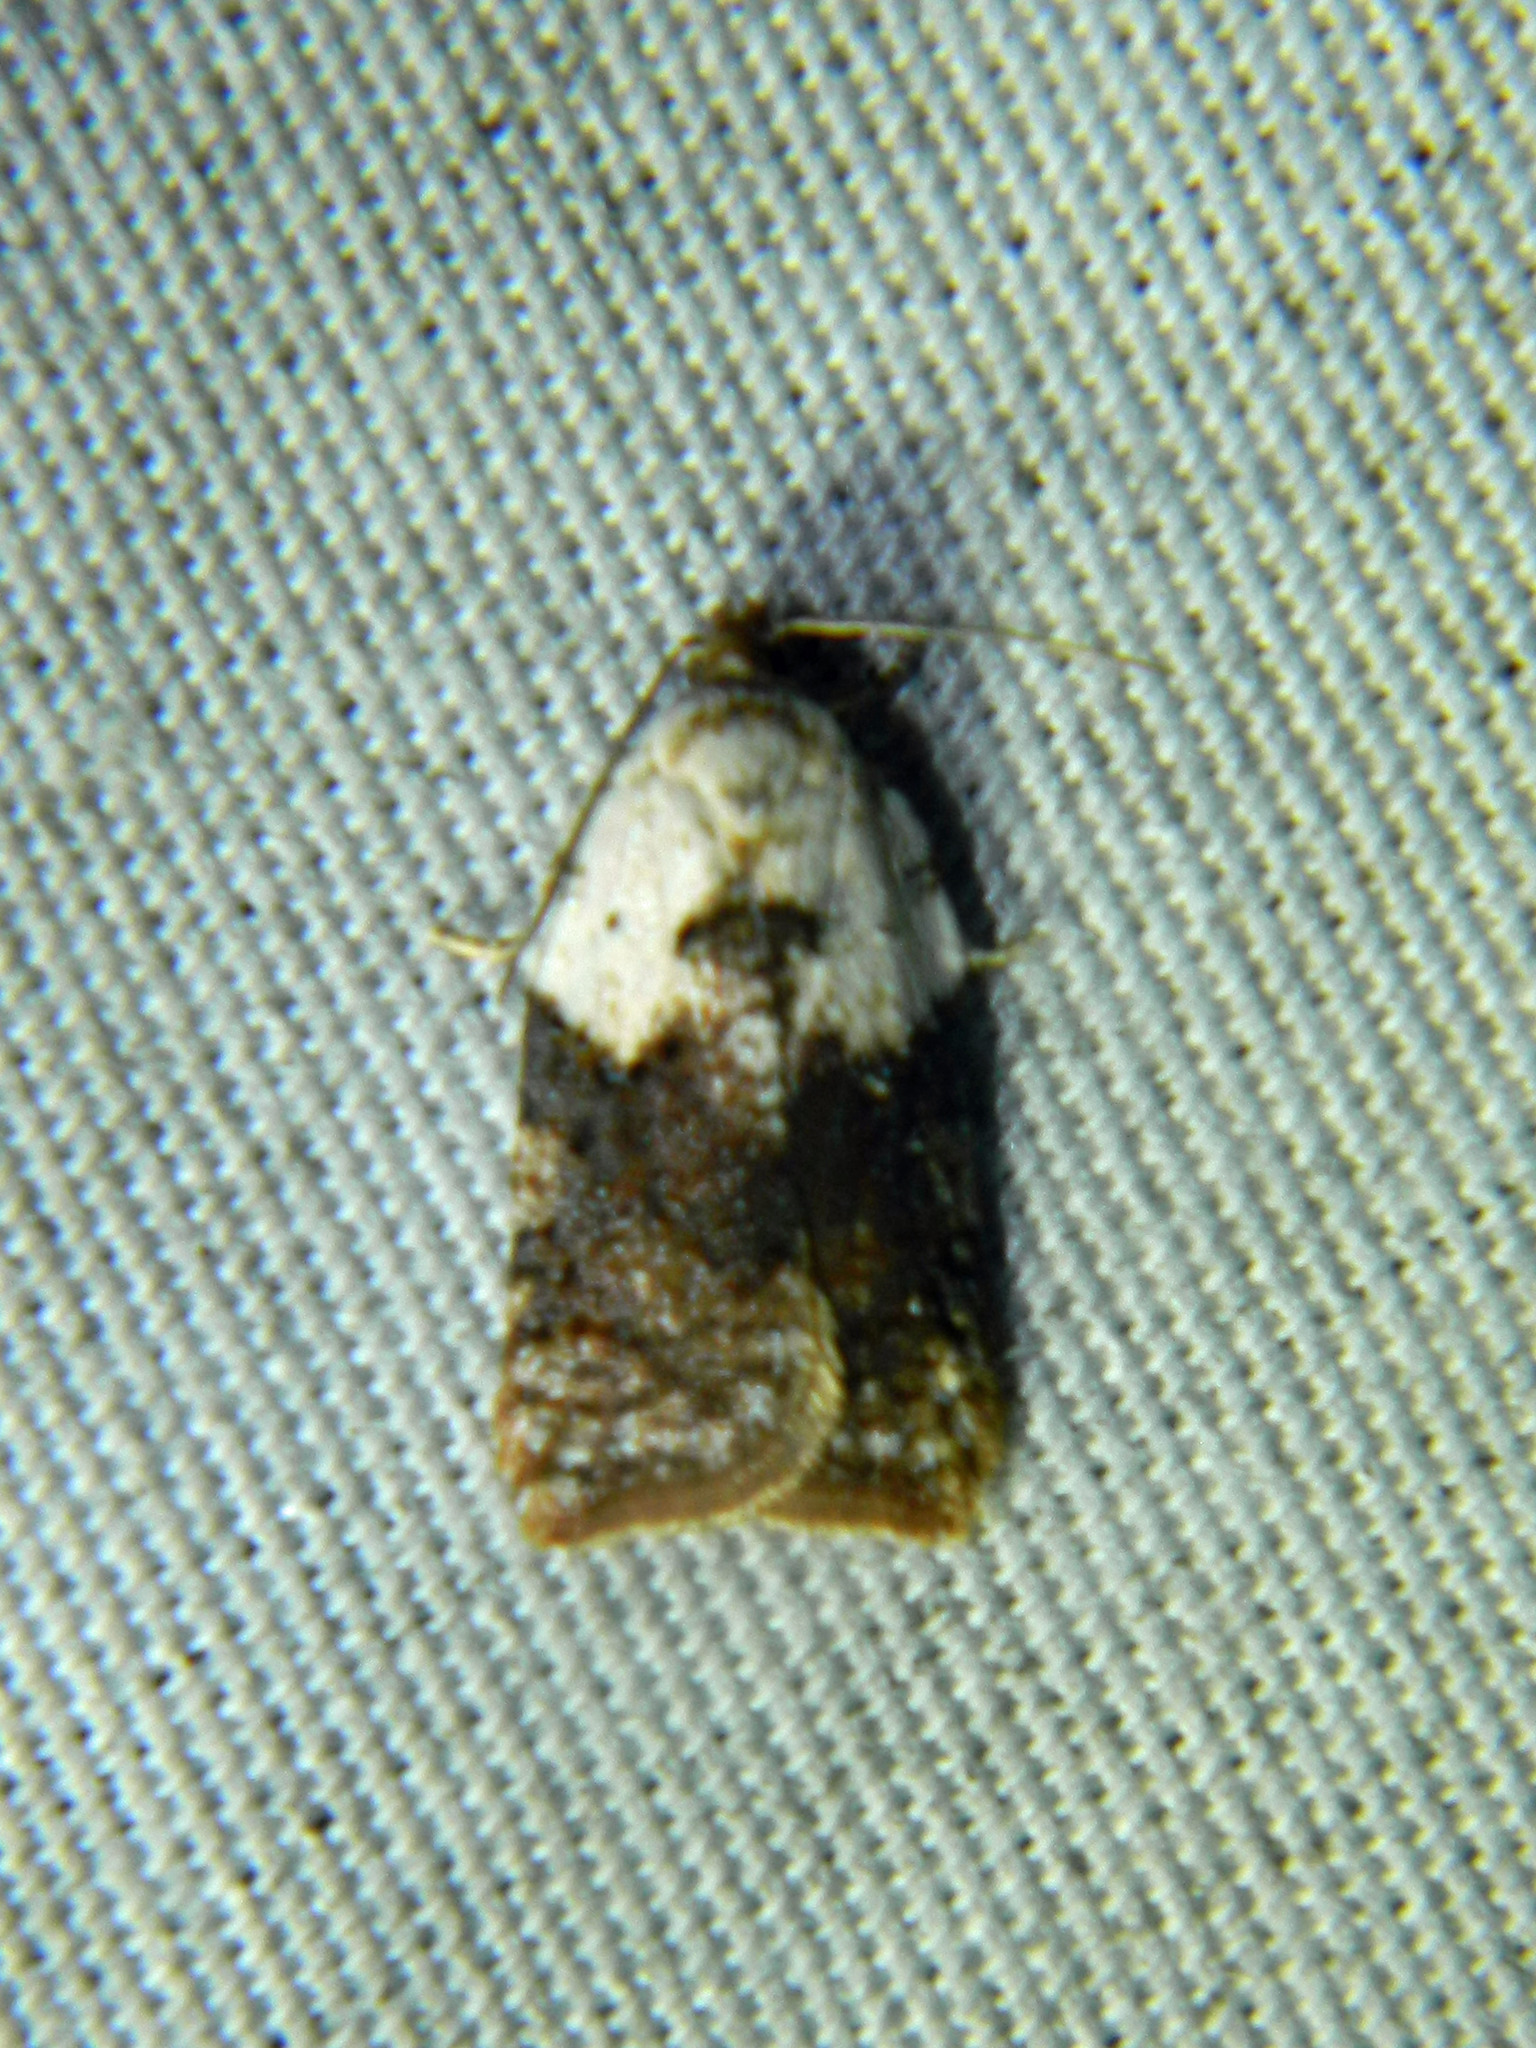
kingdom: Animalia
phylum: Arthropoda
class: Insecta
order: Lepidoptera
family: Tortricidae
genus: Acleris
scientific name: Acleris braunana
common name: Alder leafroller
